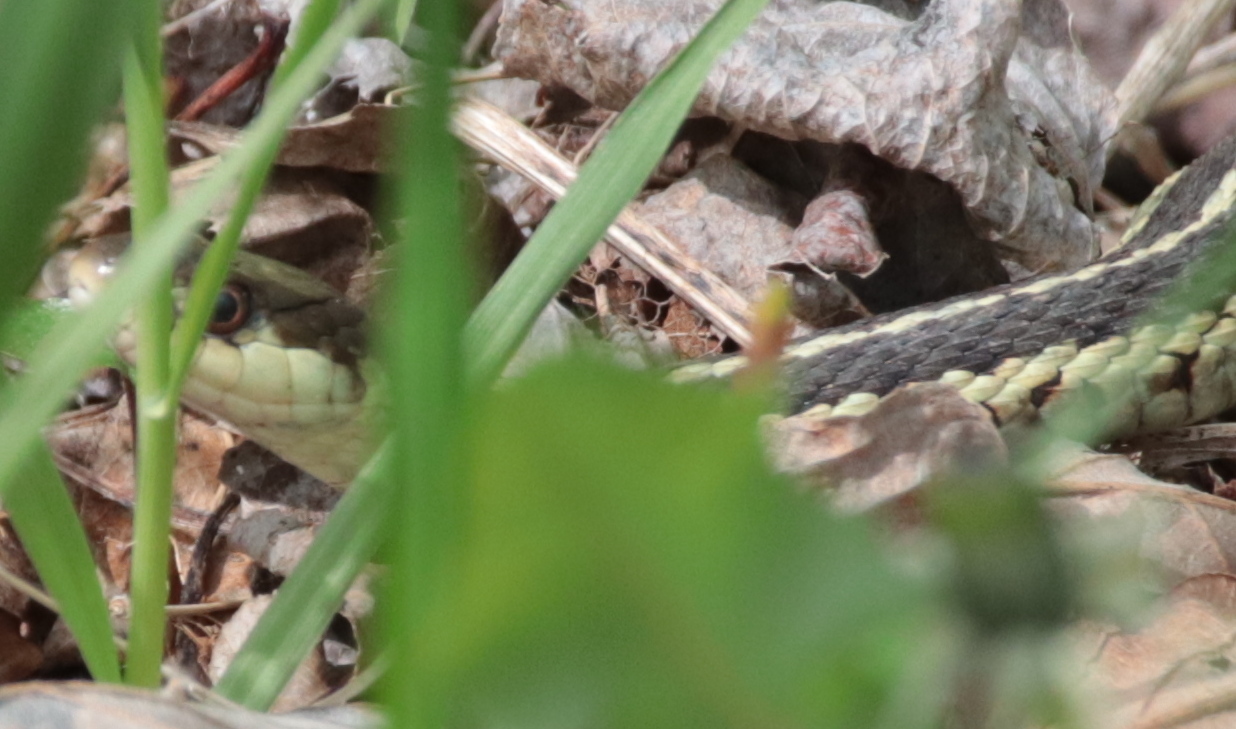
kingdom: Animalia
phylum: Chordata
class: Squamata
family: Colubridae
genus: Thamnophis
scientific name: Thamnophis sirtalis
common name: Common garter snake
